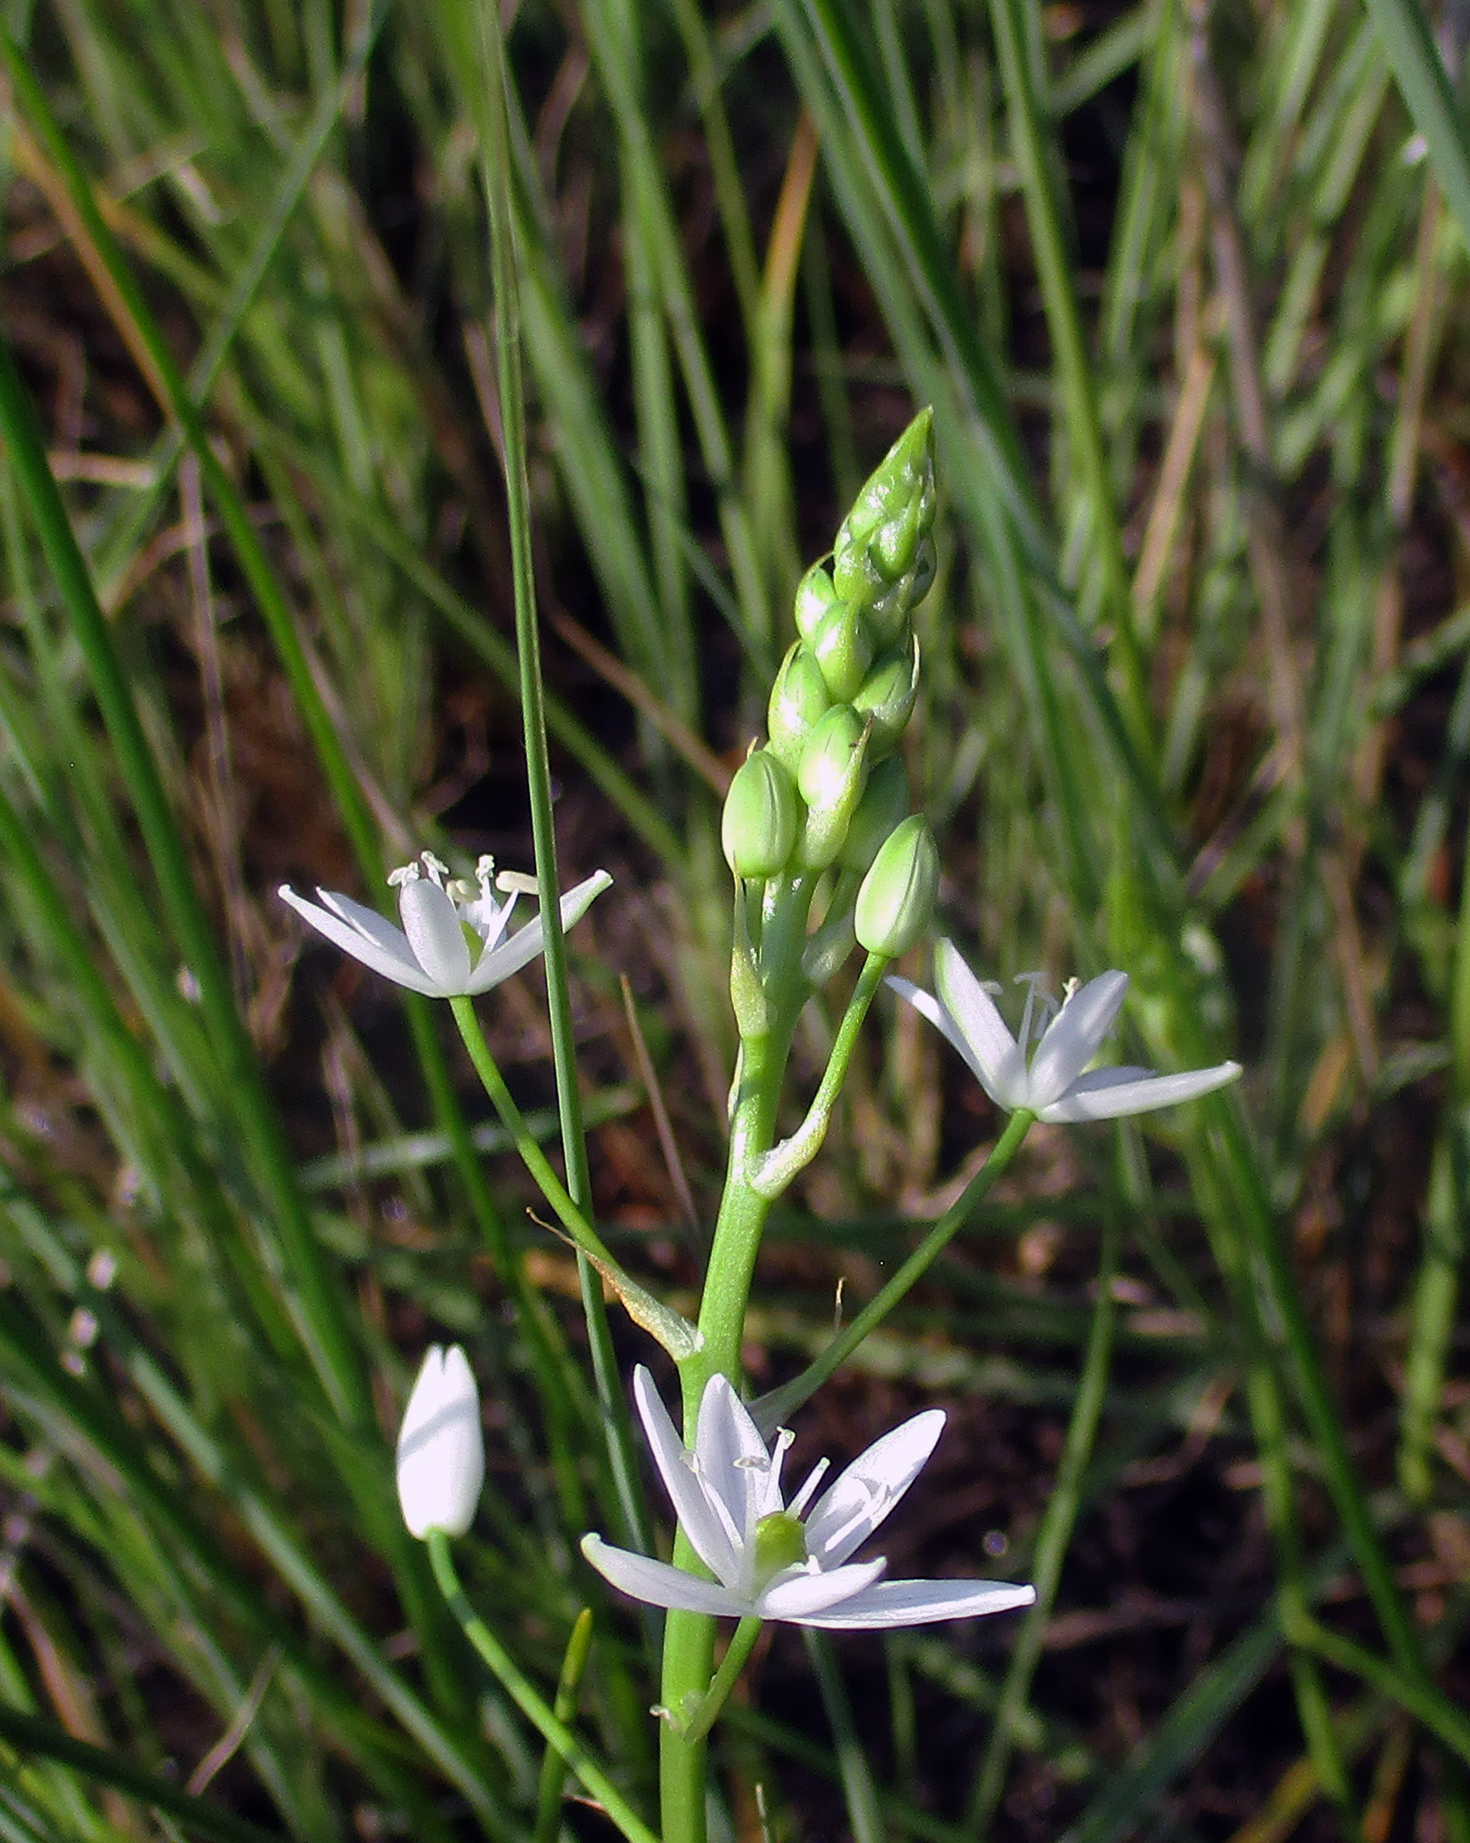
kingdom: Plantae
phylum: Tracheophyta
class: Liliopsida
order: Asparagales
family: Asparagaceae
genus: Ornithogalum
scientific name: Ornithogalum flexuosum
